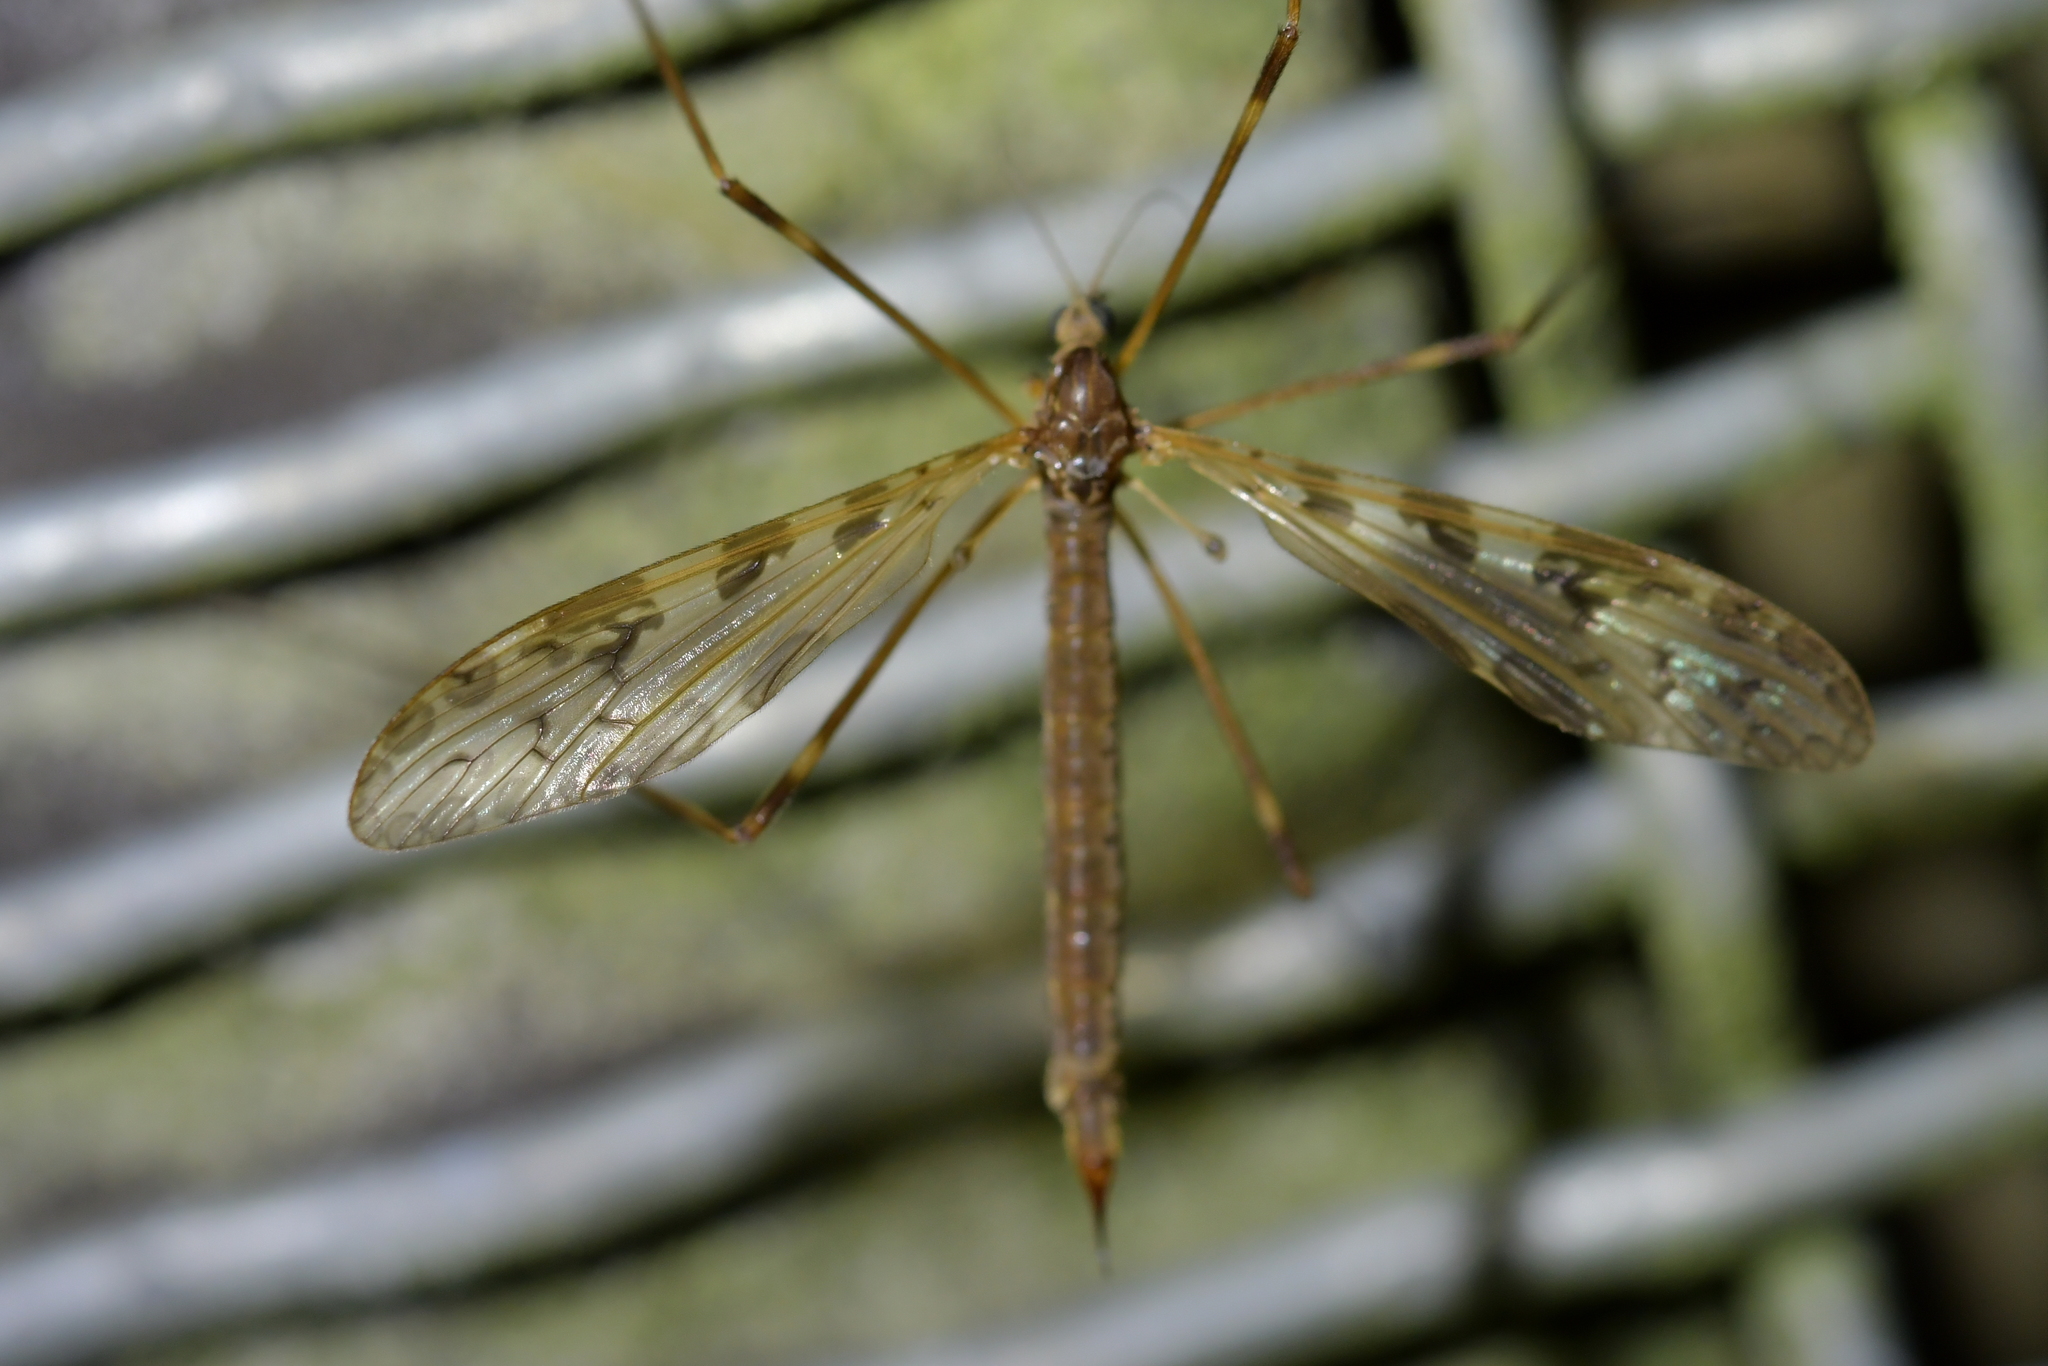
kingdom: Animalia
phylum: Arthropoda
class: Insecta
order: Diptera
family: Limoniidae
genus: Austrolimnophila
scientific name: Austrolimnophila oculata
